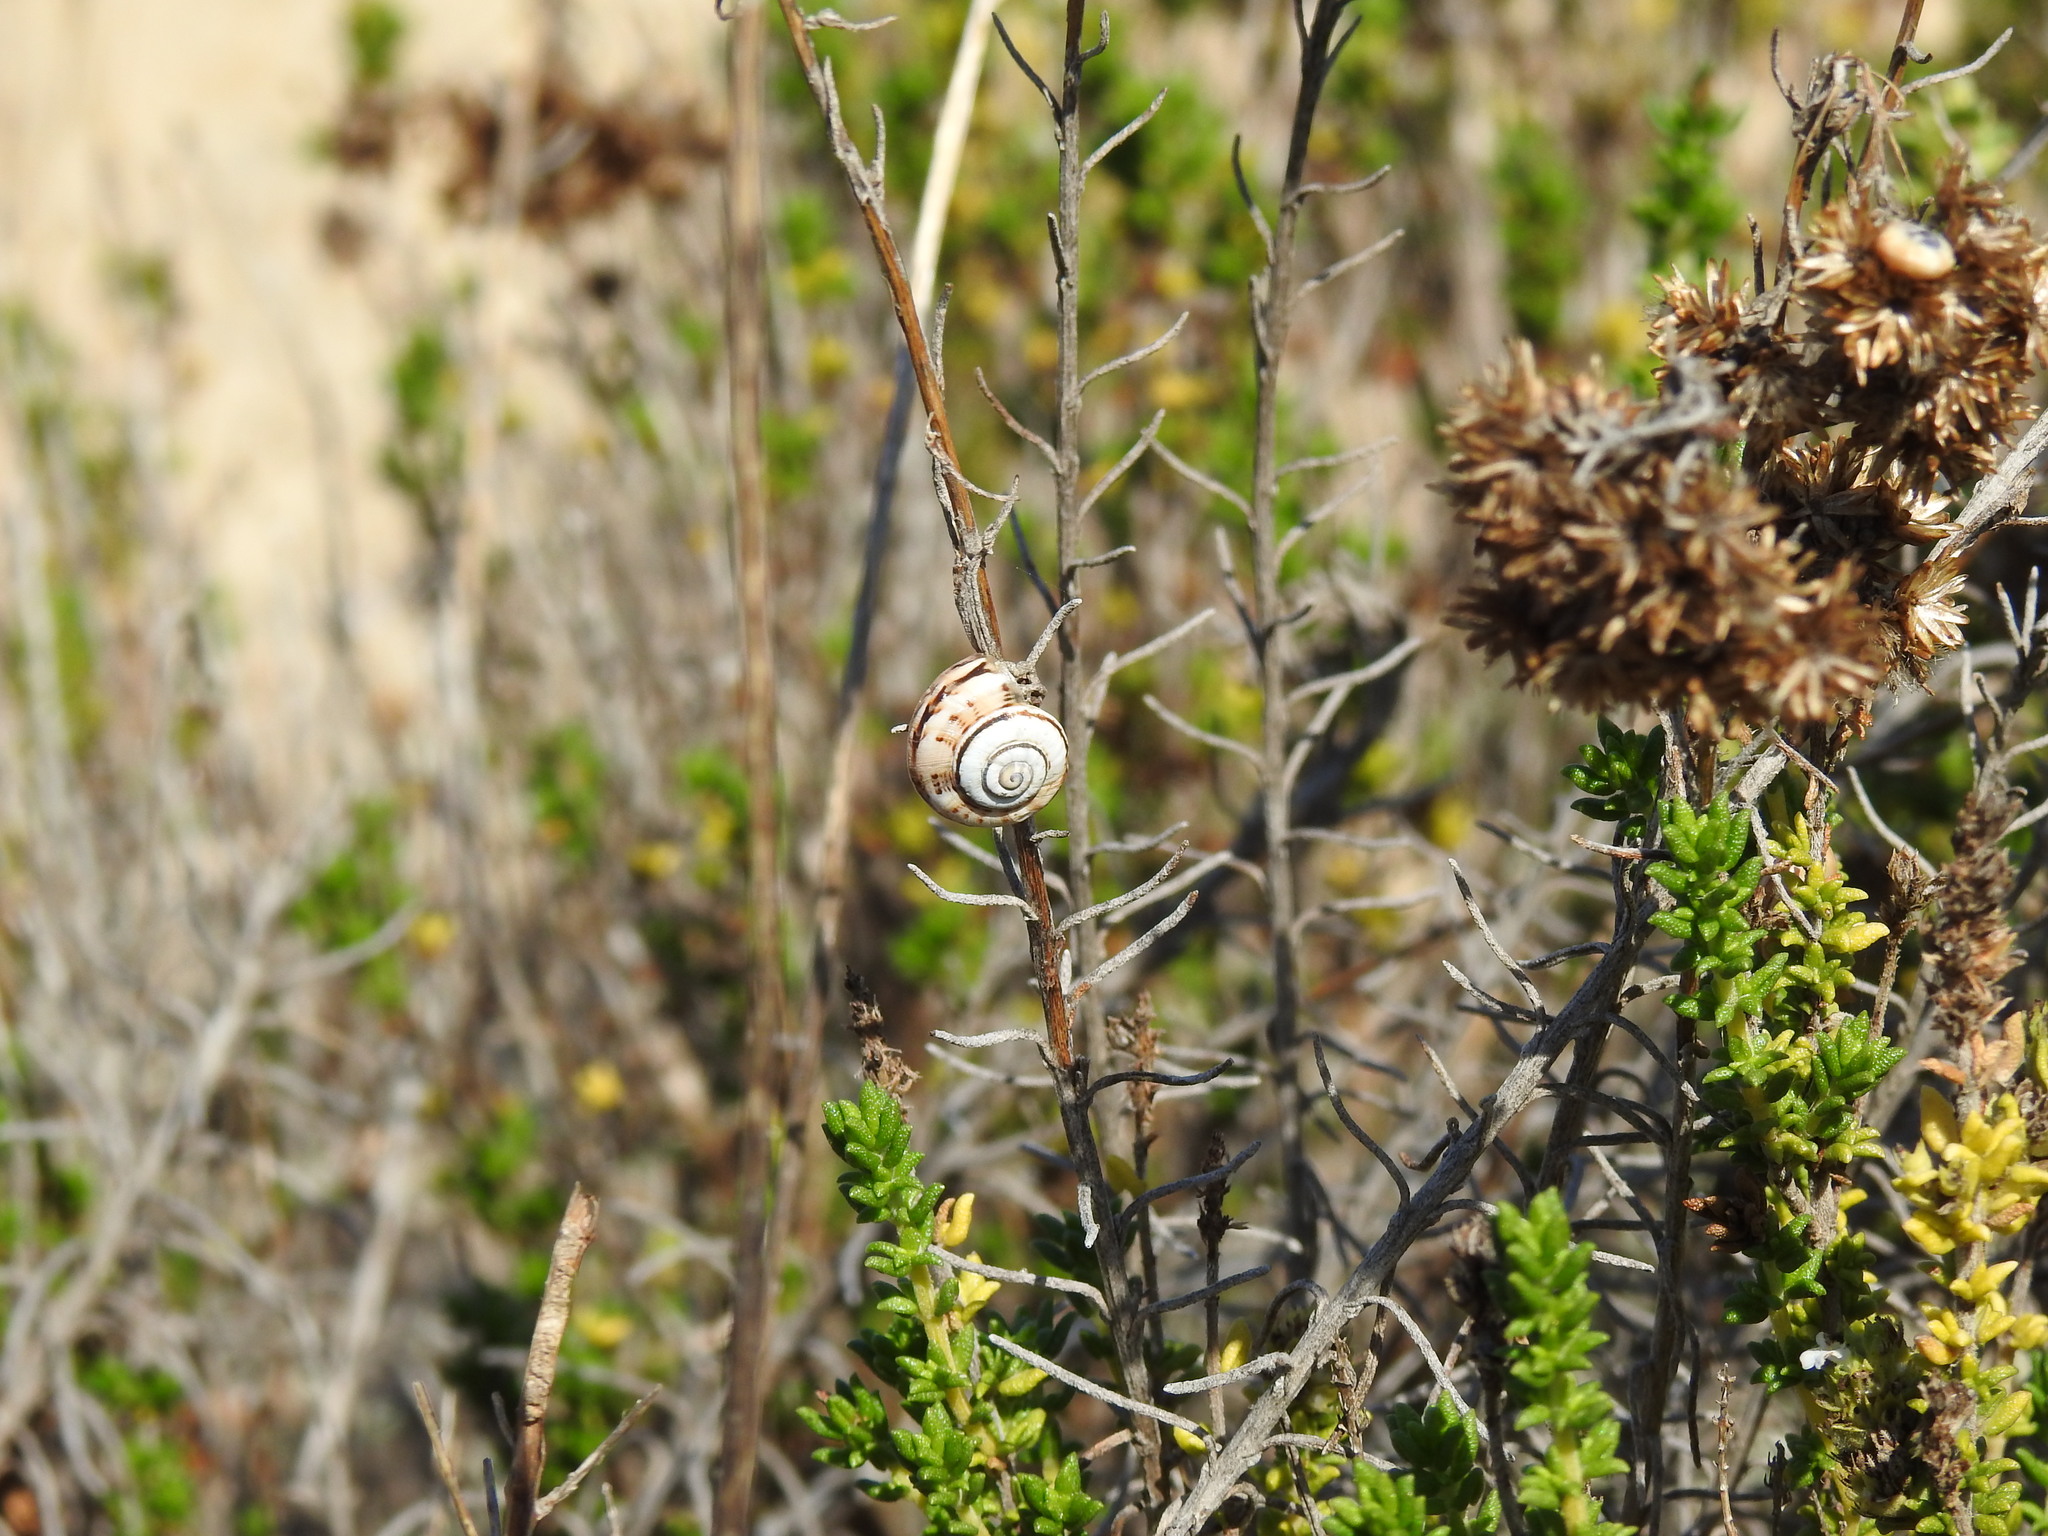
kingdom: Animalia
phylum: Mollusca
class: Gastropoda
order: Stylommatophora
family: Helicidae
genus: Theba
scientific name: Theba pisana
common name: White snail
